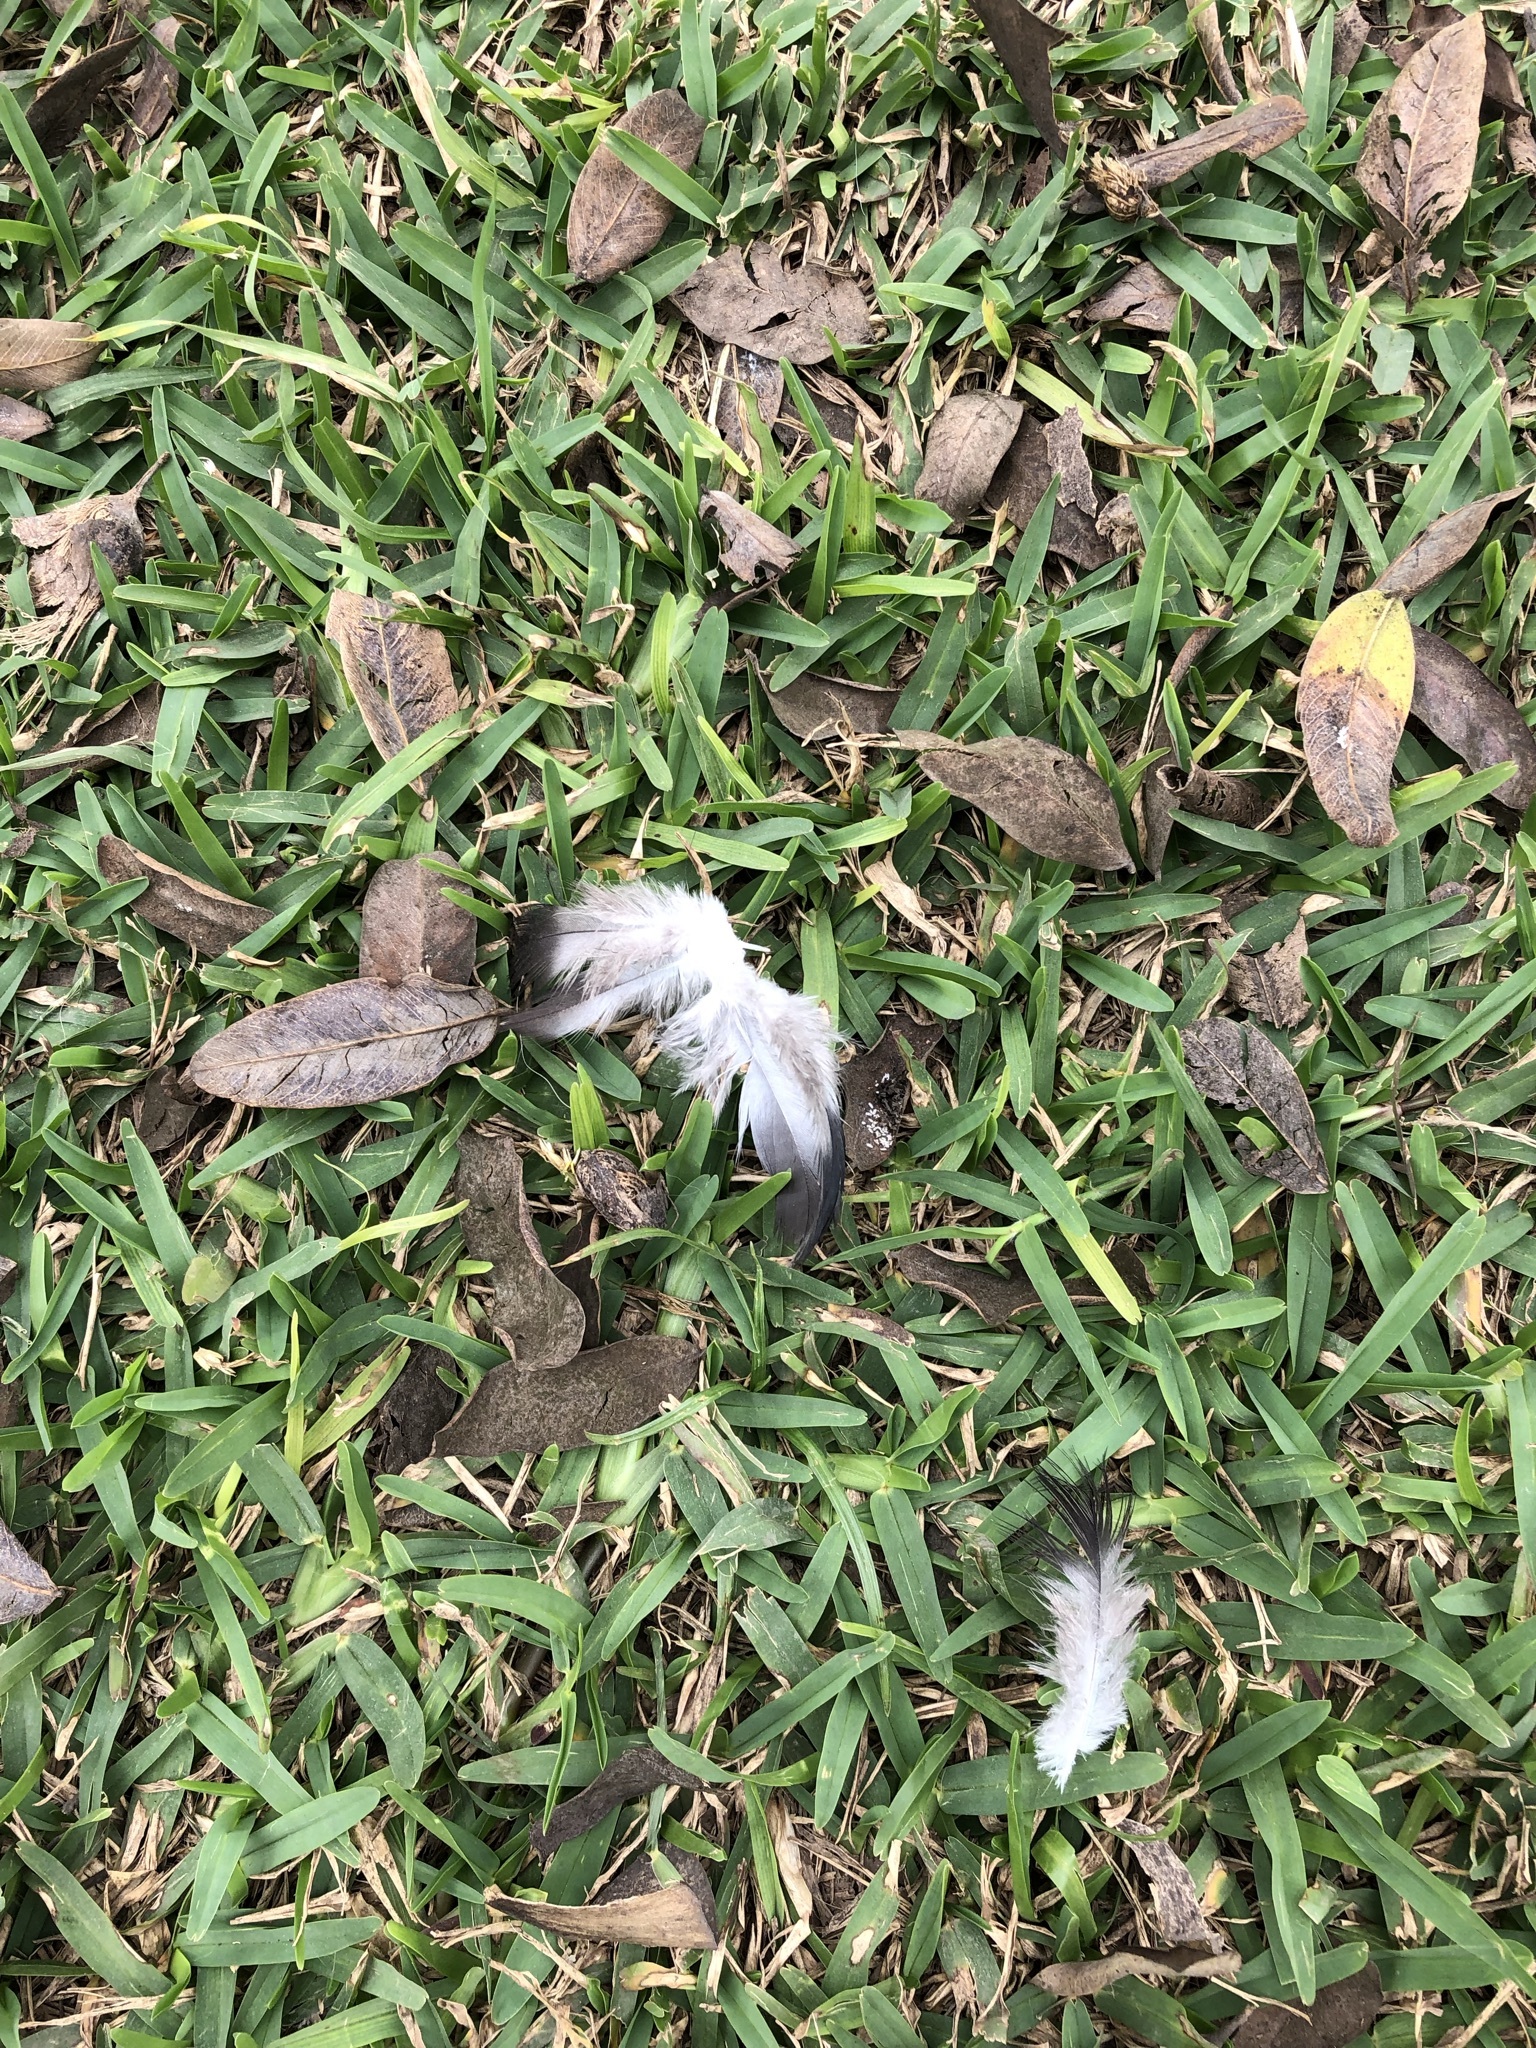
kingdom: Animalia
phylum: Chordata
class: Aves
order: Columbiformes
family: Columbidae
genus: Columba
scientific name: Columba livia
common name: Rock pigeon
